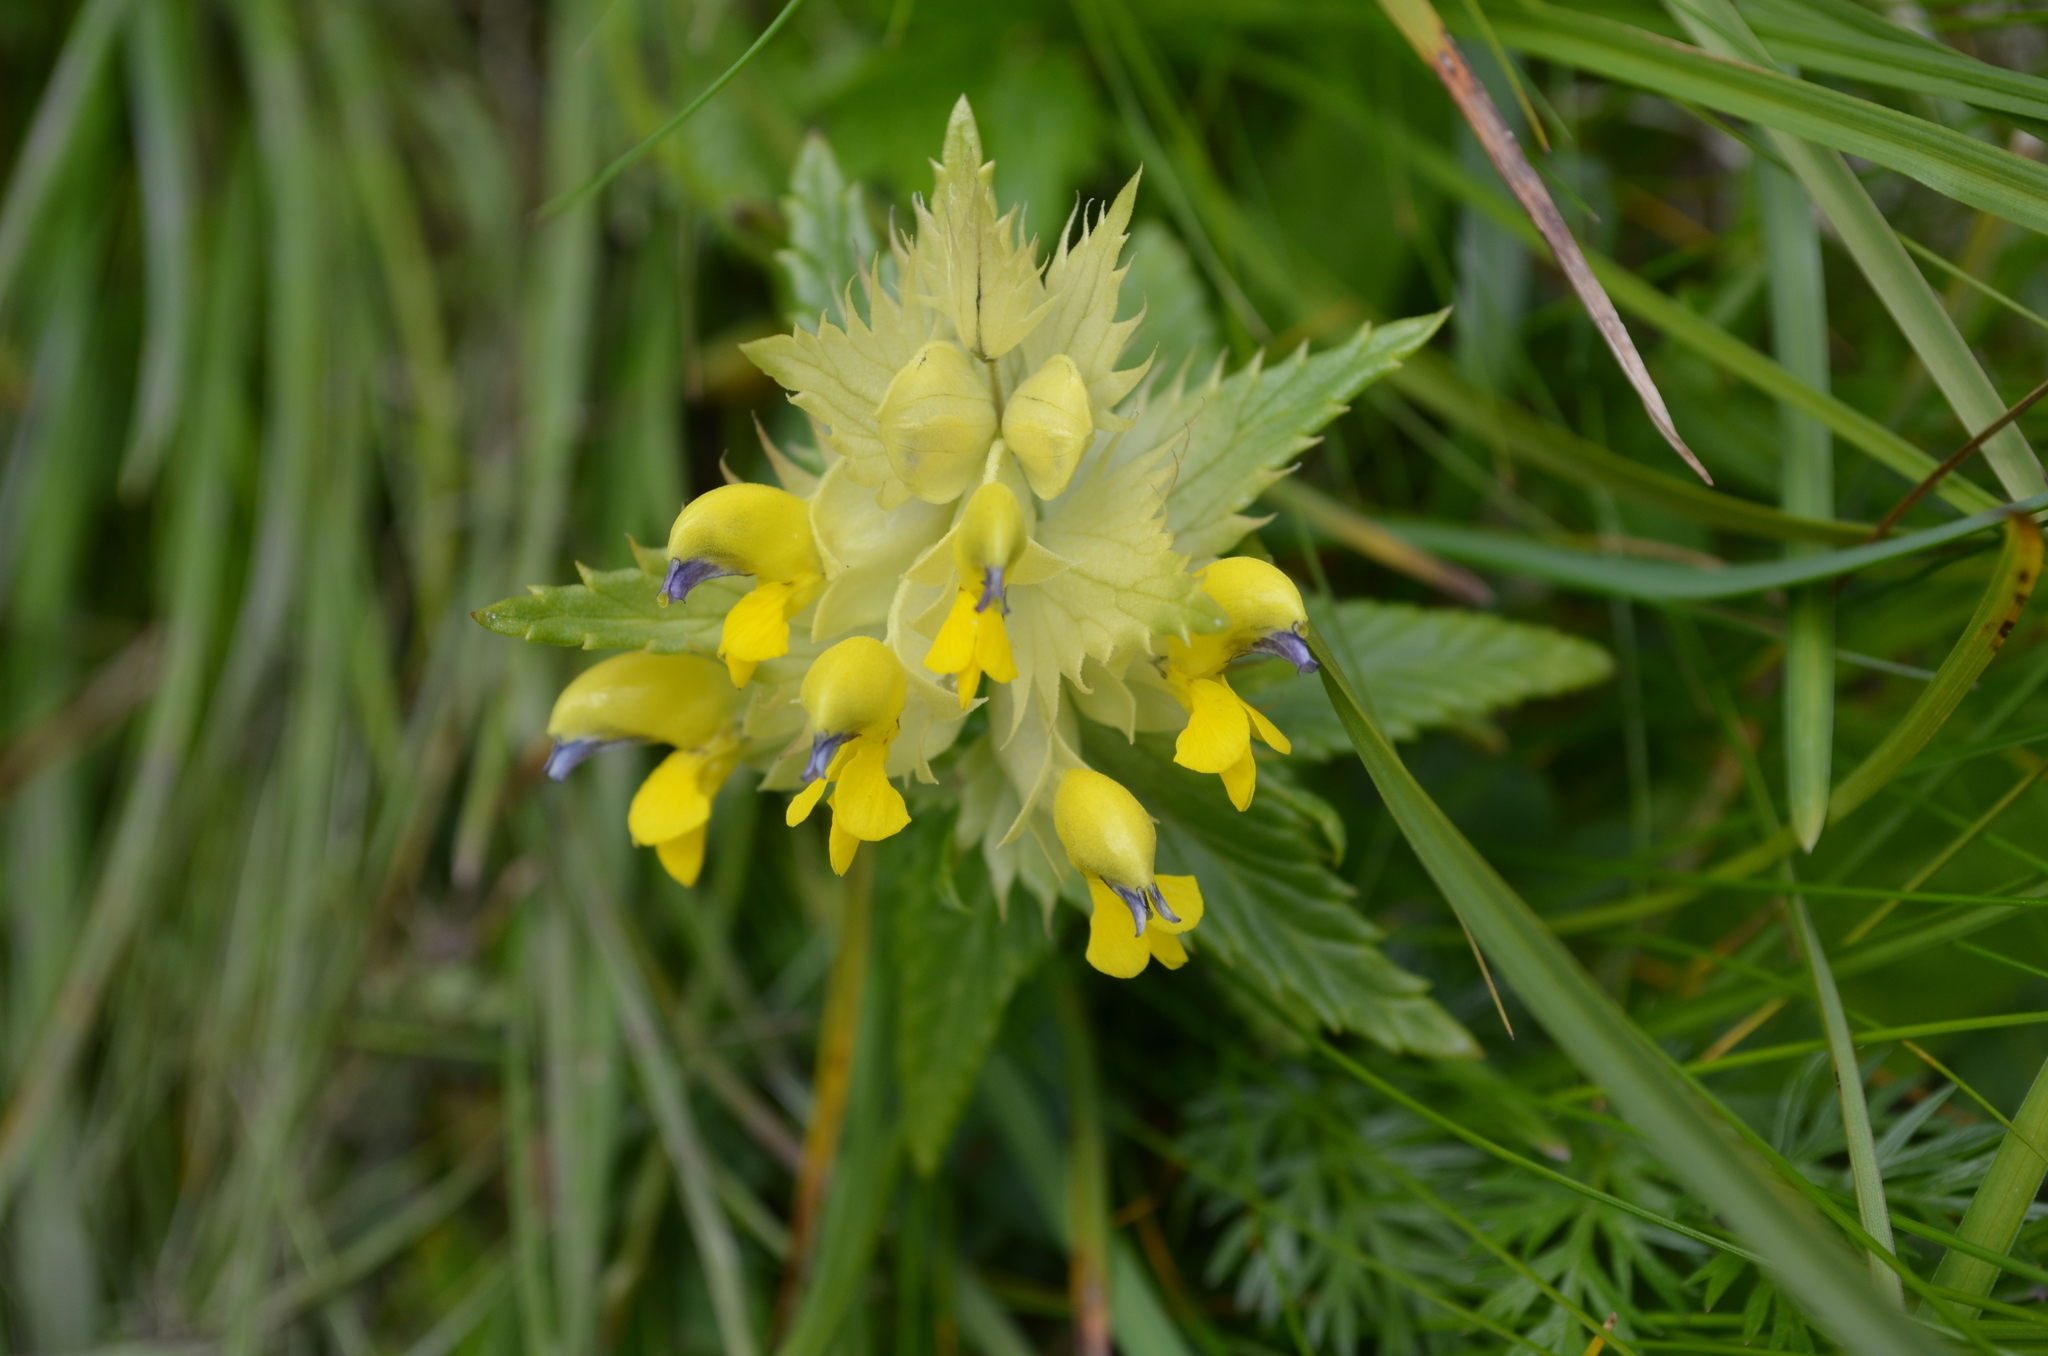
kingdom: Plantae
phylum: Tracheophyta
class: Magnoliopsida
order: Lamiales
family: Orobanchaceae
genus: Rhinanthus
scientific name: Rhinanthus alectorolophus
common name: Greater yellow-rattle
